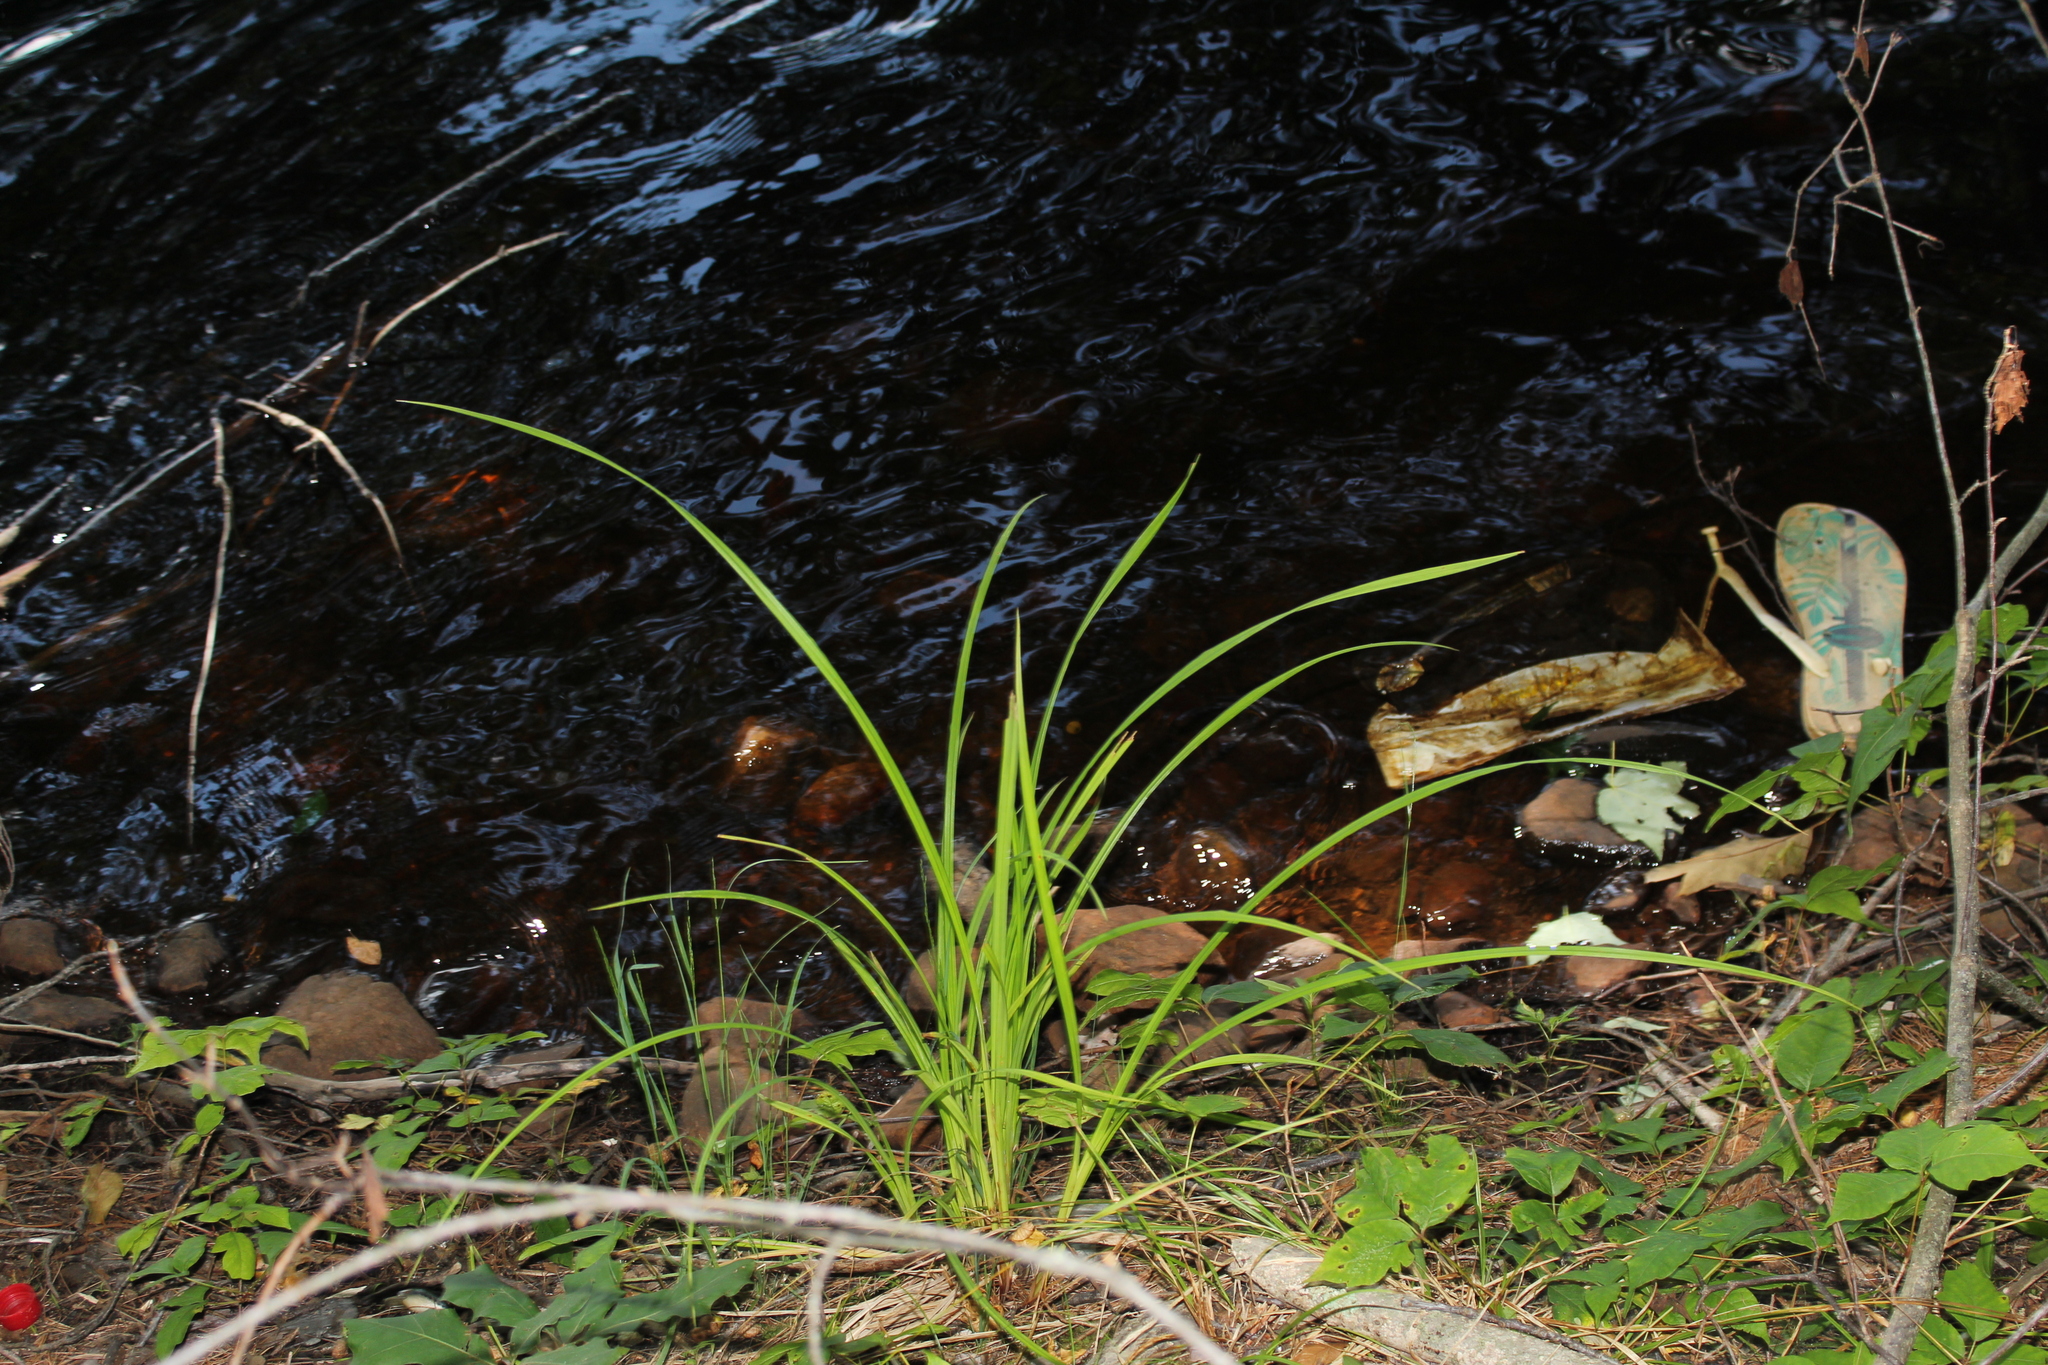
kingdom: Plantae
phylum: Tracheophyta
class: Liliopsida
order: Poales
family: Cyperaceae
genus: Carex
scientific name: Carex
